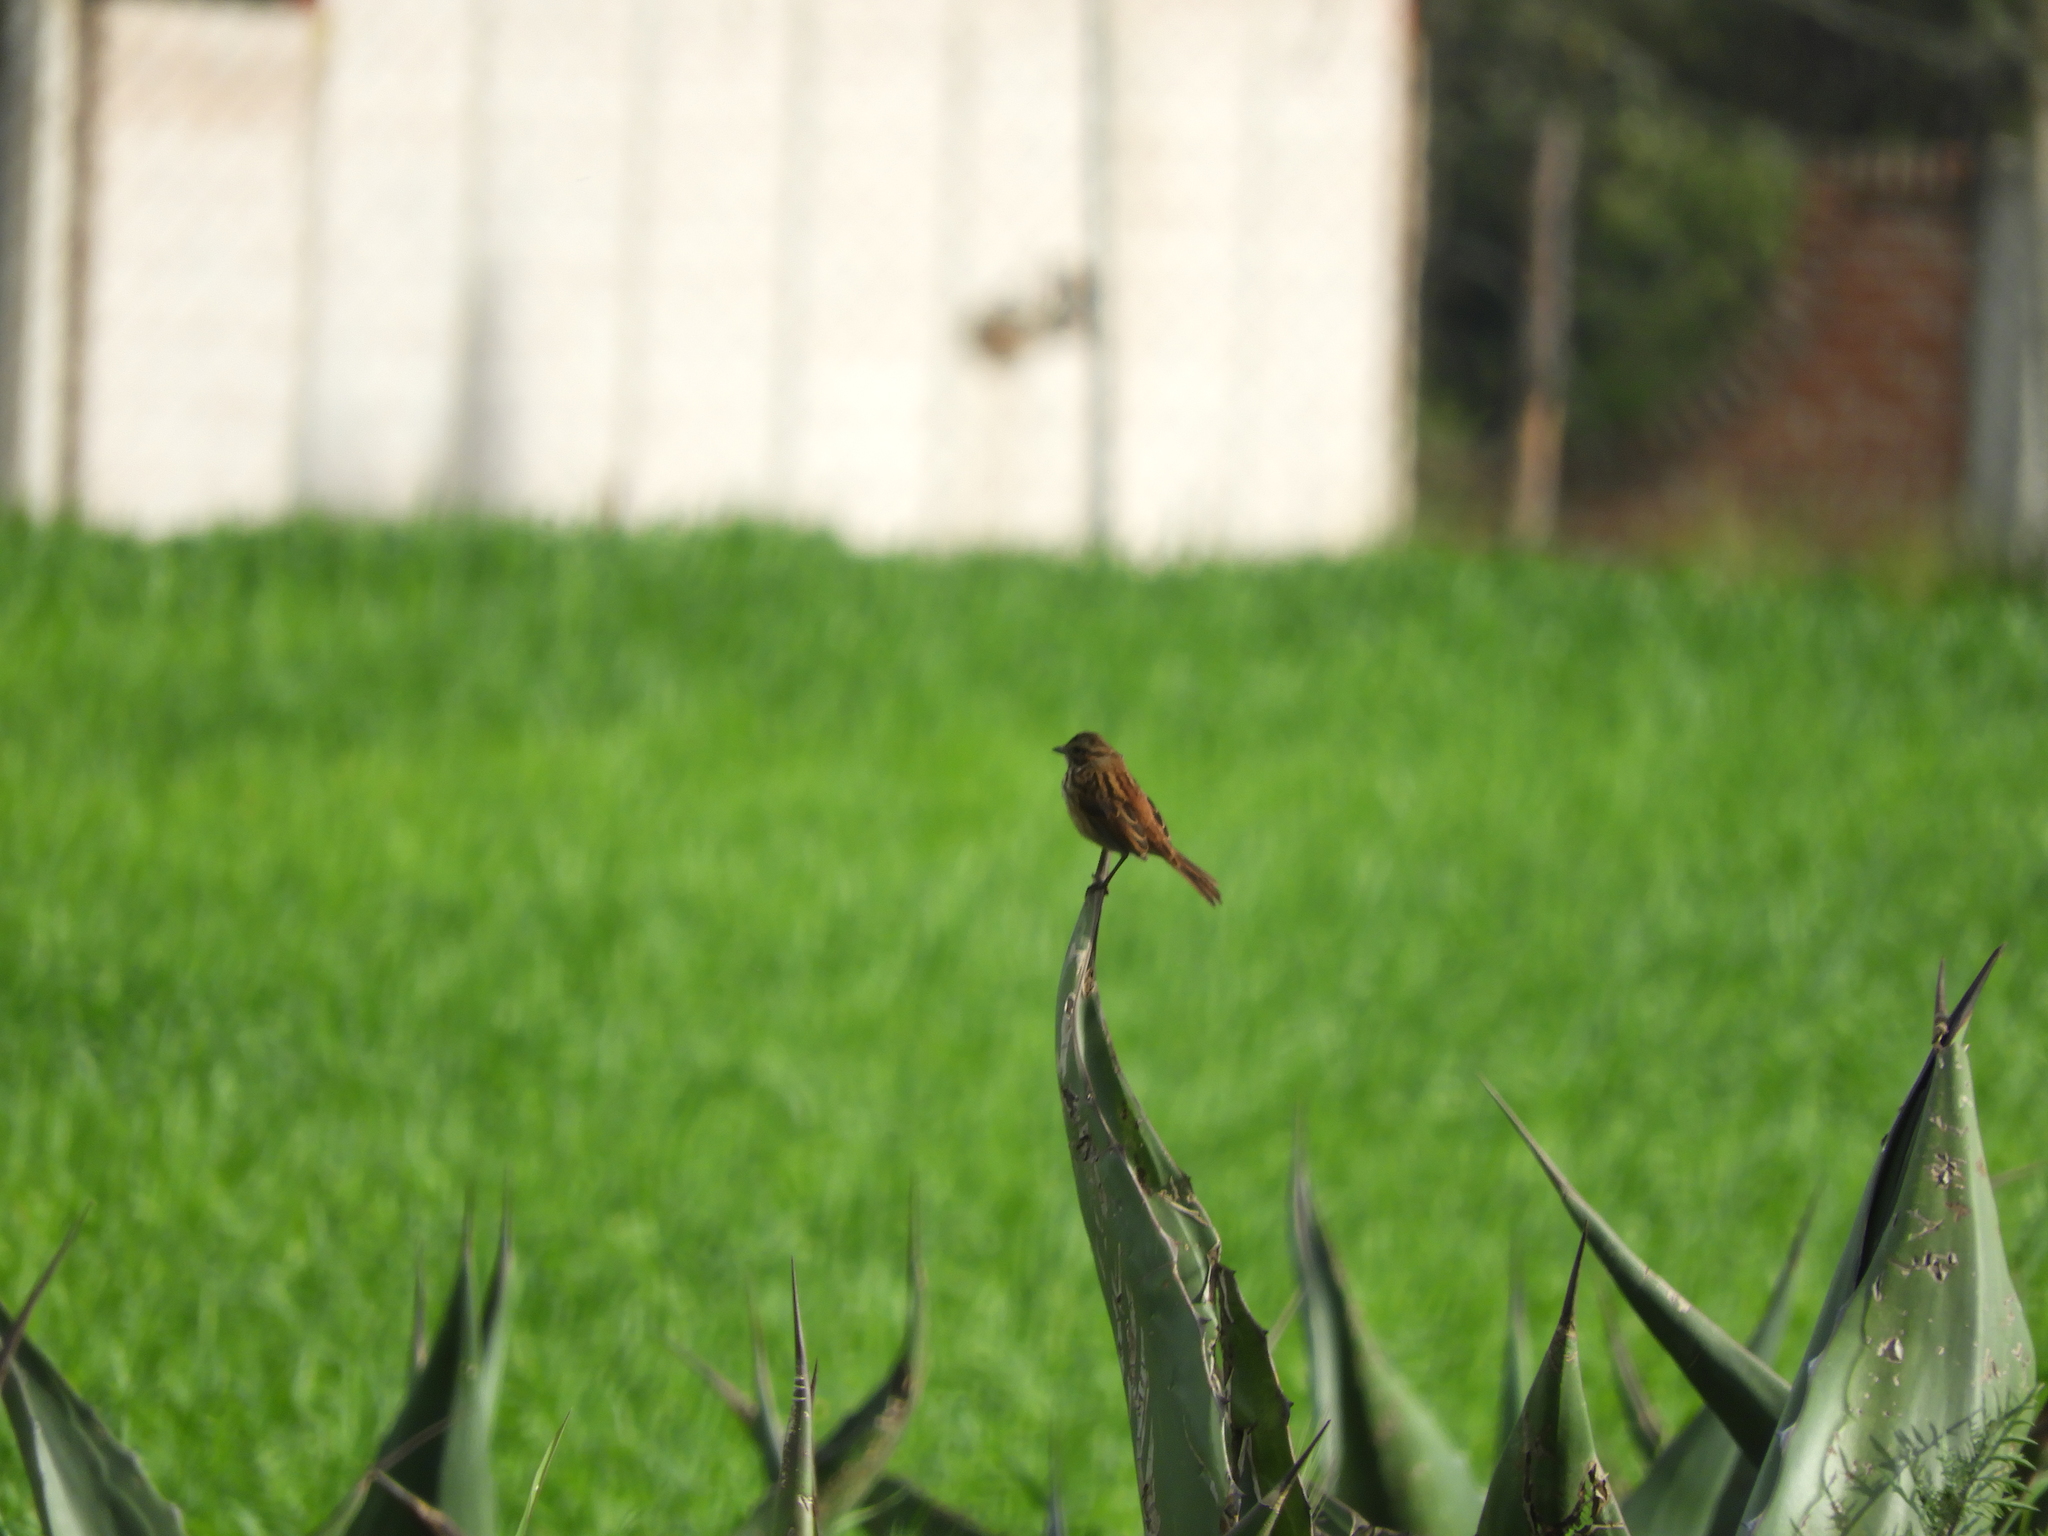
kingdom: Animalia
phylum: Chordata
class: Aves
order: Passeriformes
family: Passerellidae
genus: Oriturus
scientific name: Oriturus superciliosus
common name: Striped sparrow
